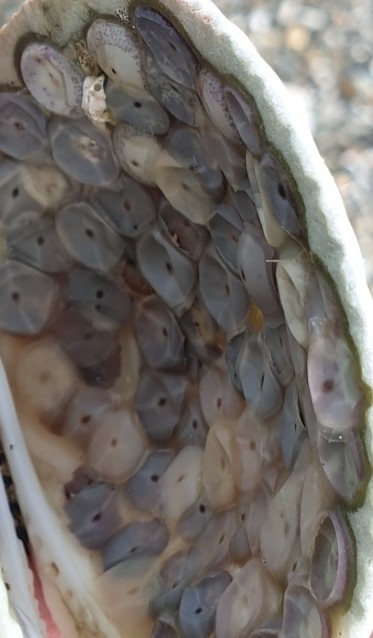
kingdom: Animalia
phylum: Mollusca
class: Gastropoda
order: Neogastropoda
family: Muricidae
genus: Zeatrophon
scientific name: Zeatrophon ambiguus
